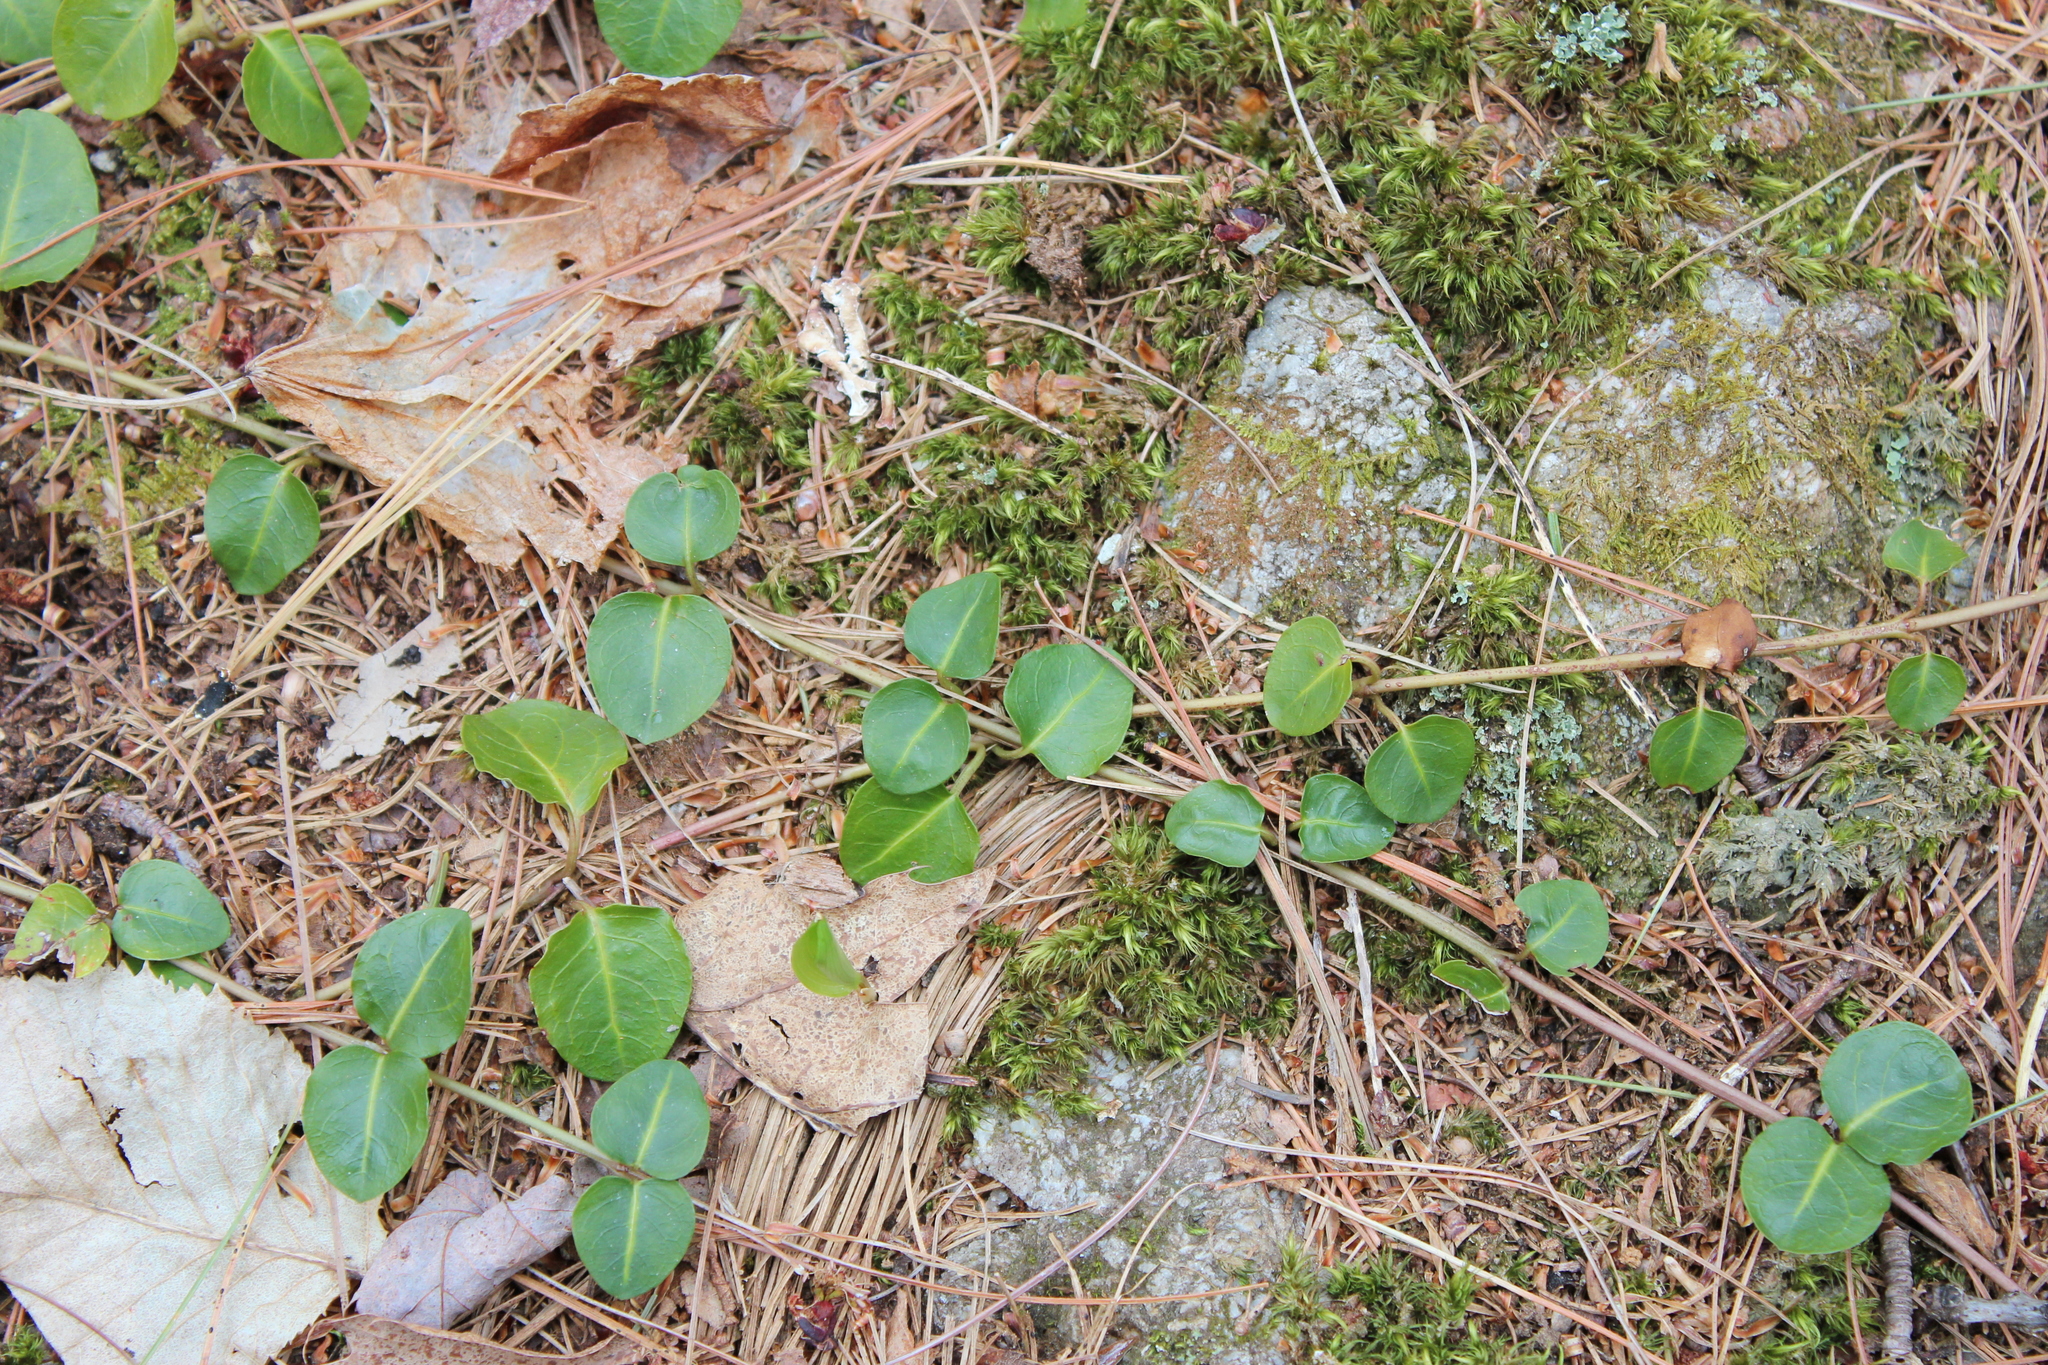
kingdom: Plantae
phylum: Tracheophyta
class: Magnoliopsida
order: Gentianales
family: Rubiaceae
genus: Mitchella
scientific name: Mitchella repens
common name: Partridge-berry
